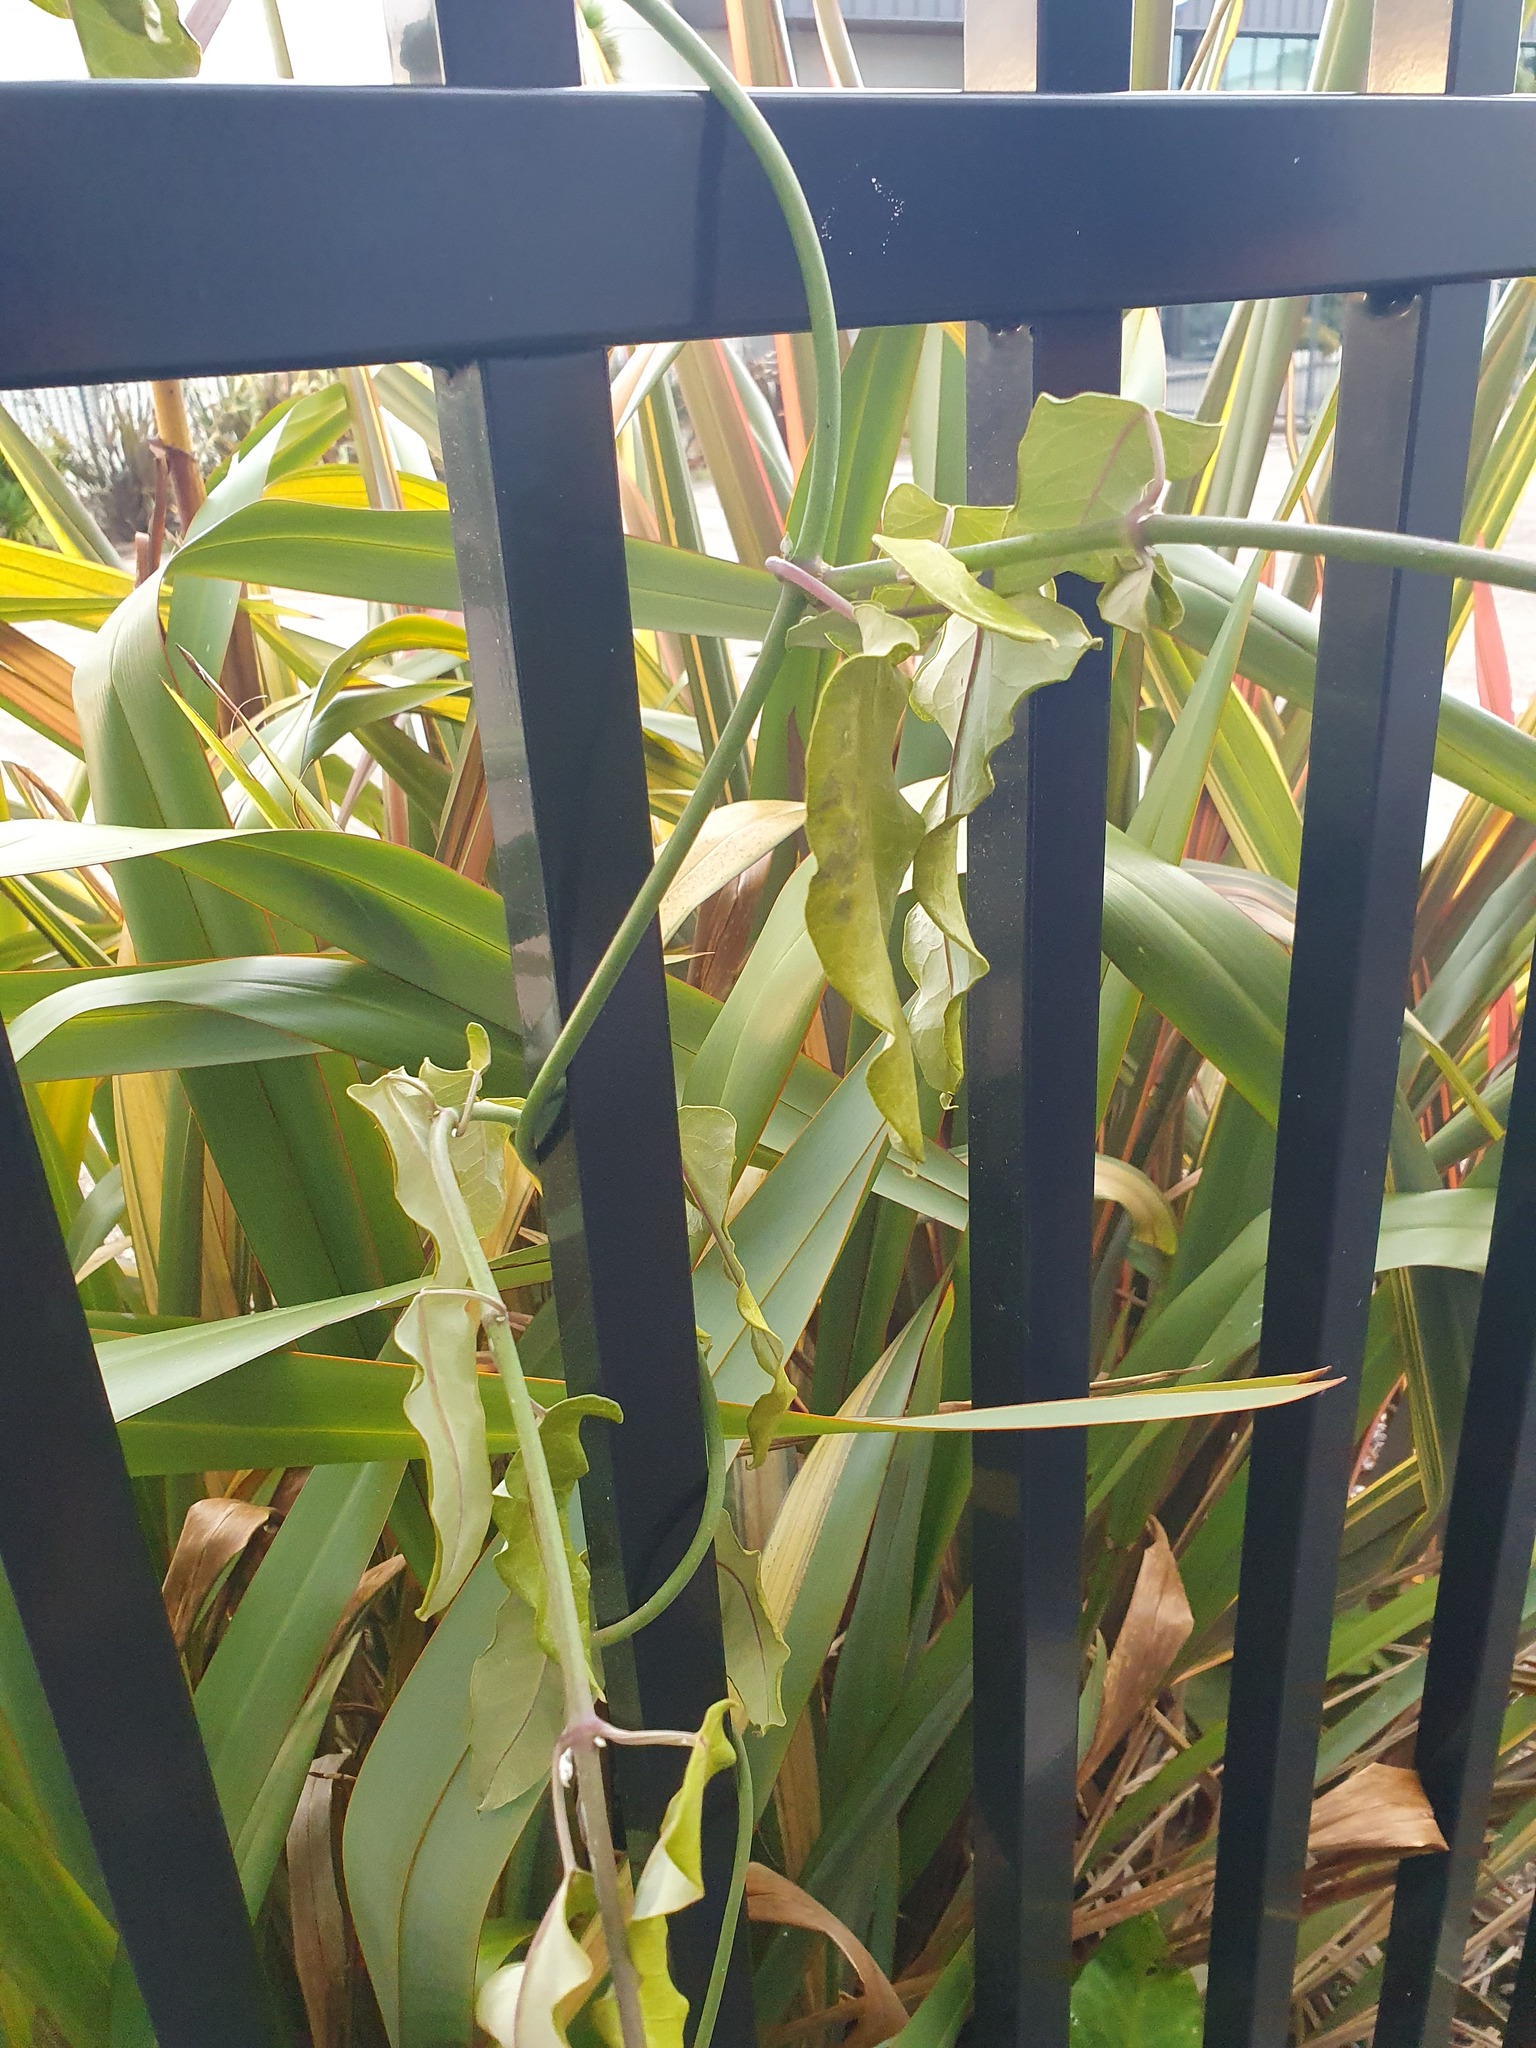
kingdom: Plantae
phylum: Tracheophyta
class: Magnoliopsida
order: Gentianales
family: Apocynaceae
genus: Araujia
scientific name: Araujia sericifera
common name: White bladderflower
